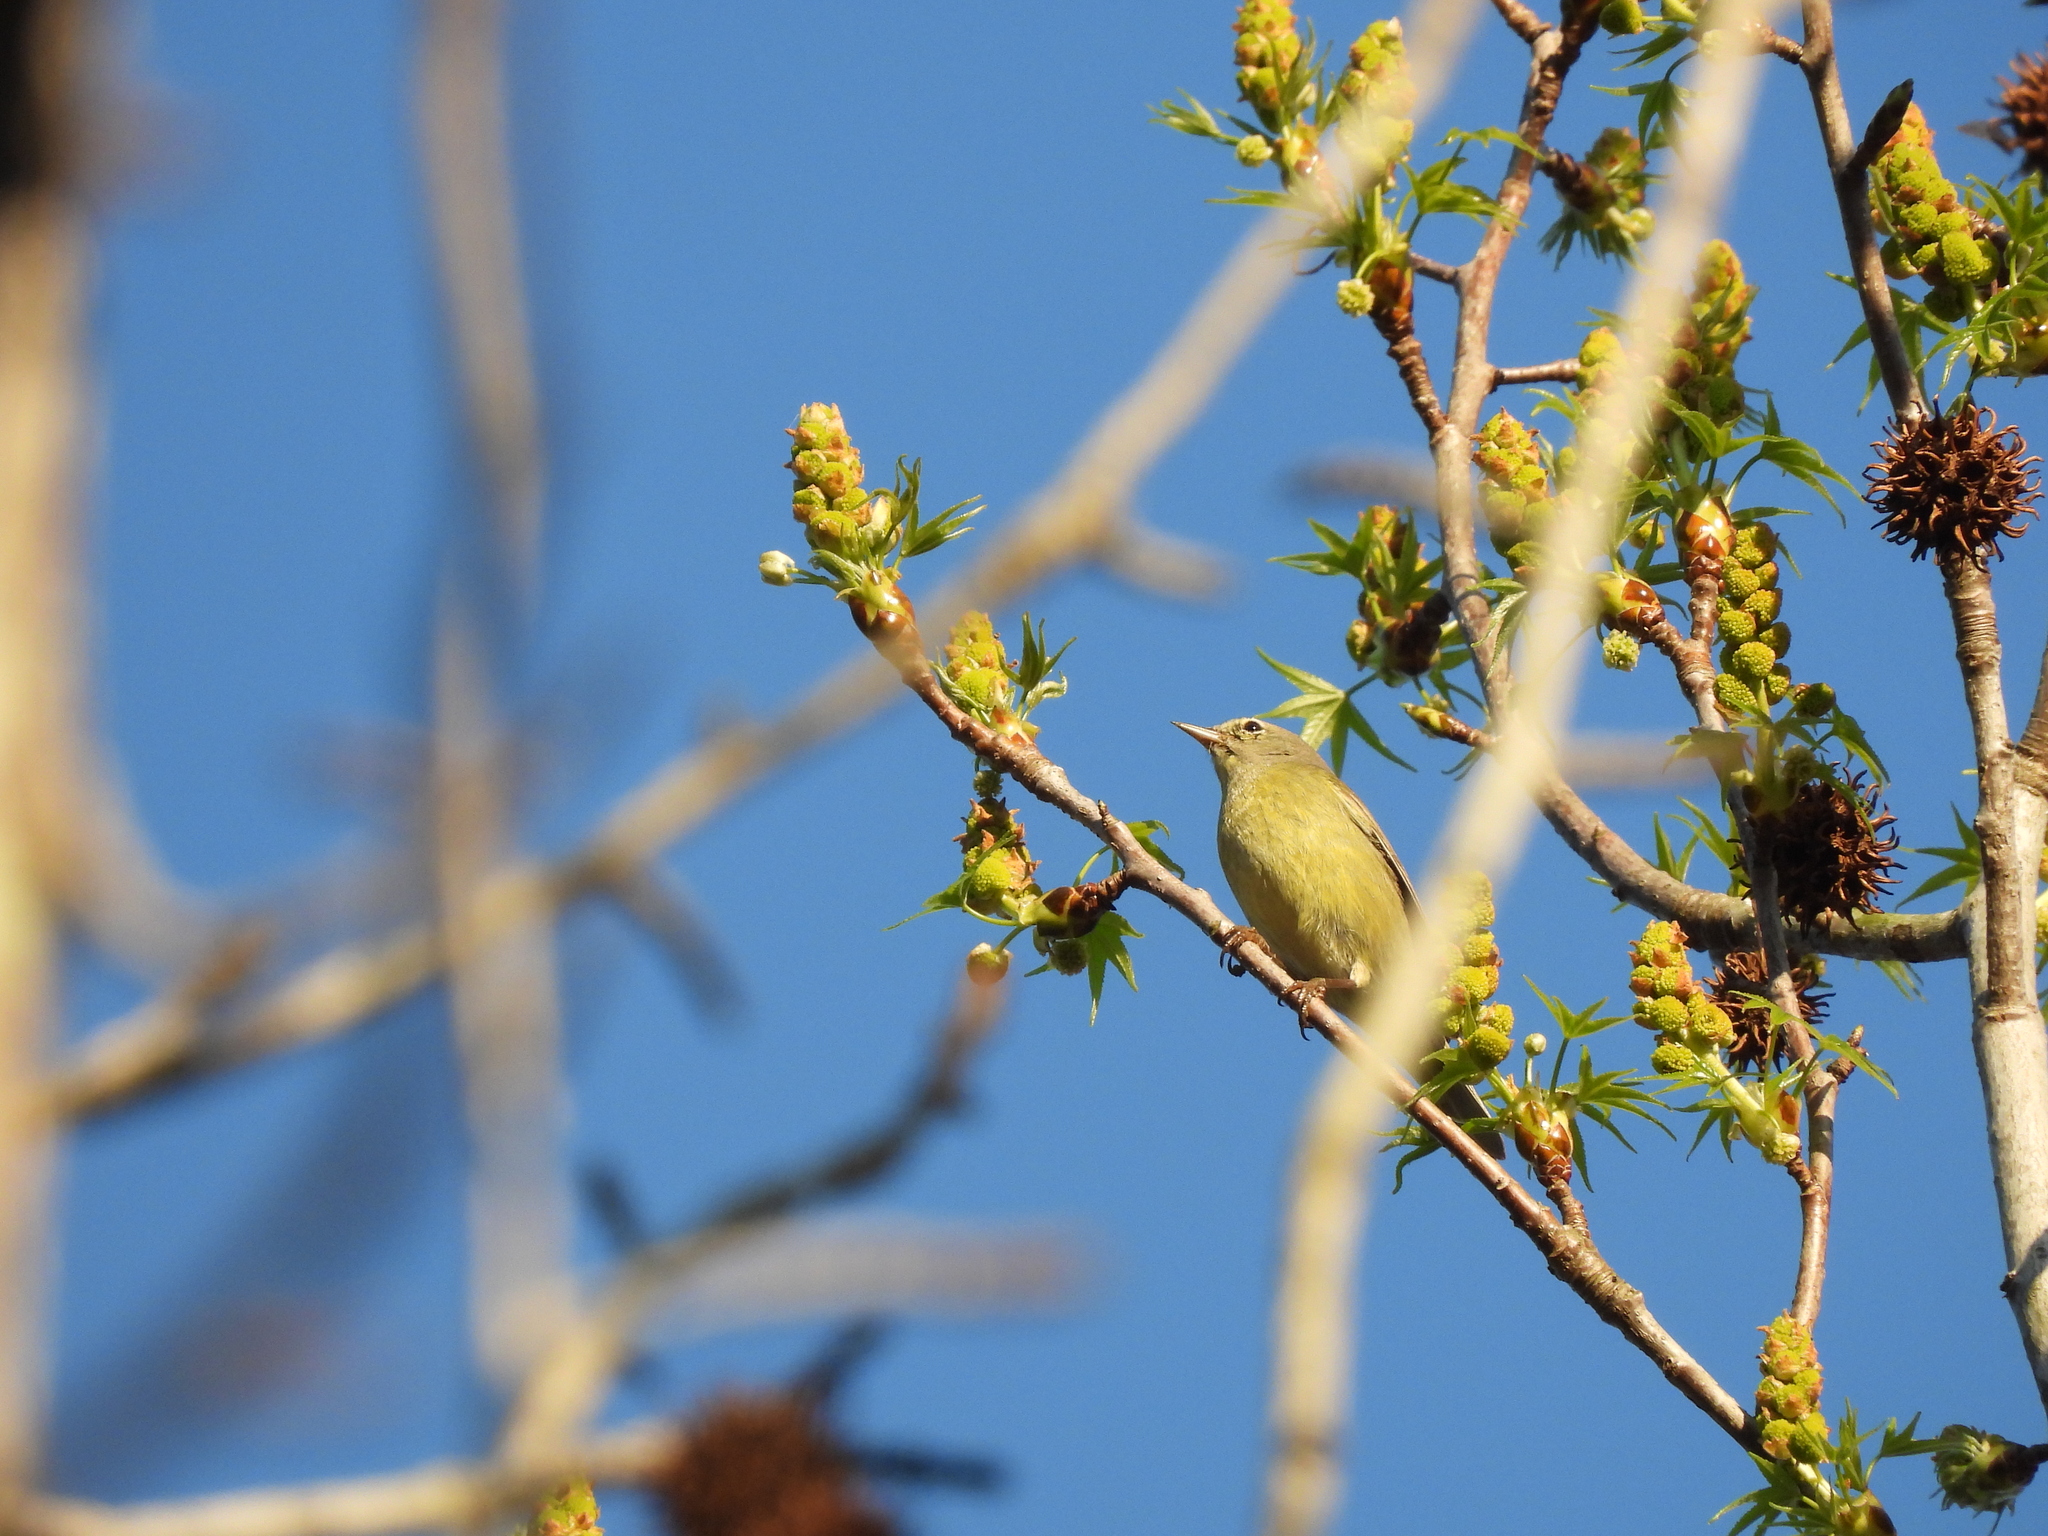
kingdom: Animalia
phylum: Chordata
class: Aves
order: Passeriformes
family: Parulidae
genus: Leiothlypis
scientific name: Leiothlypis celata
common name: Orange-crowned warbler
